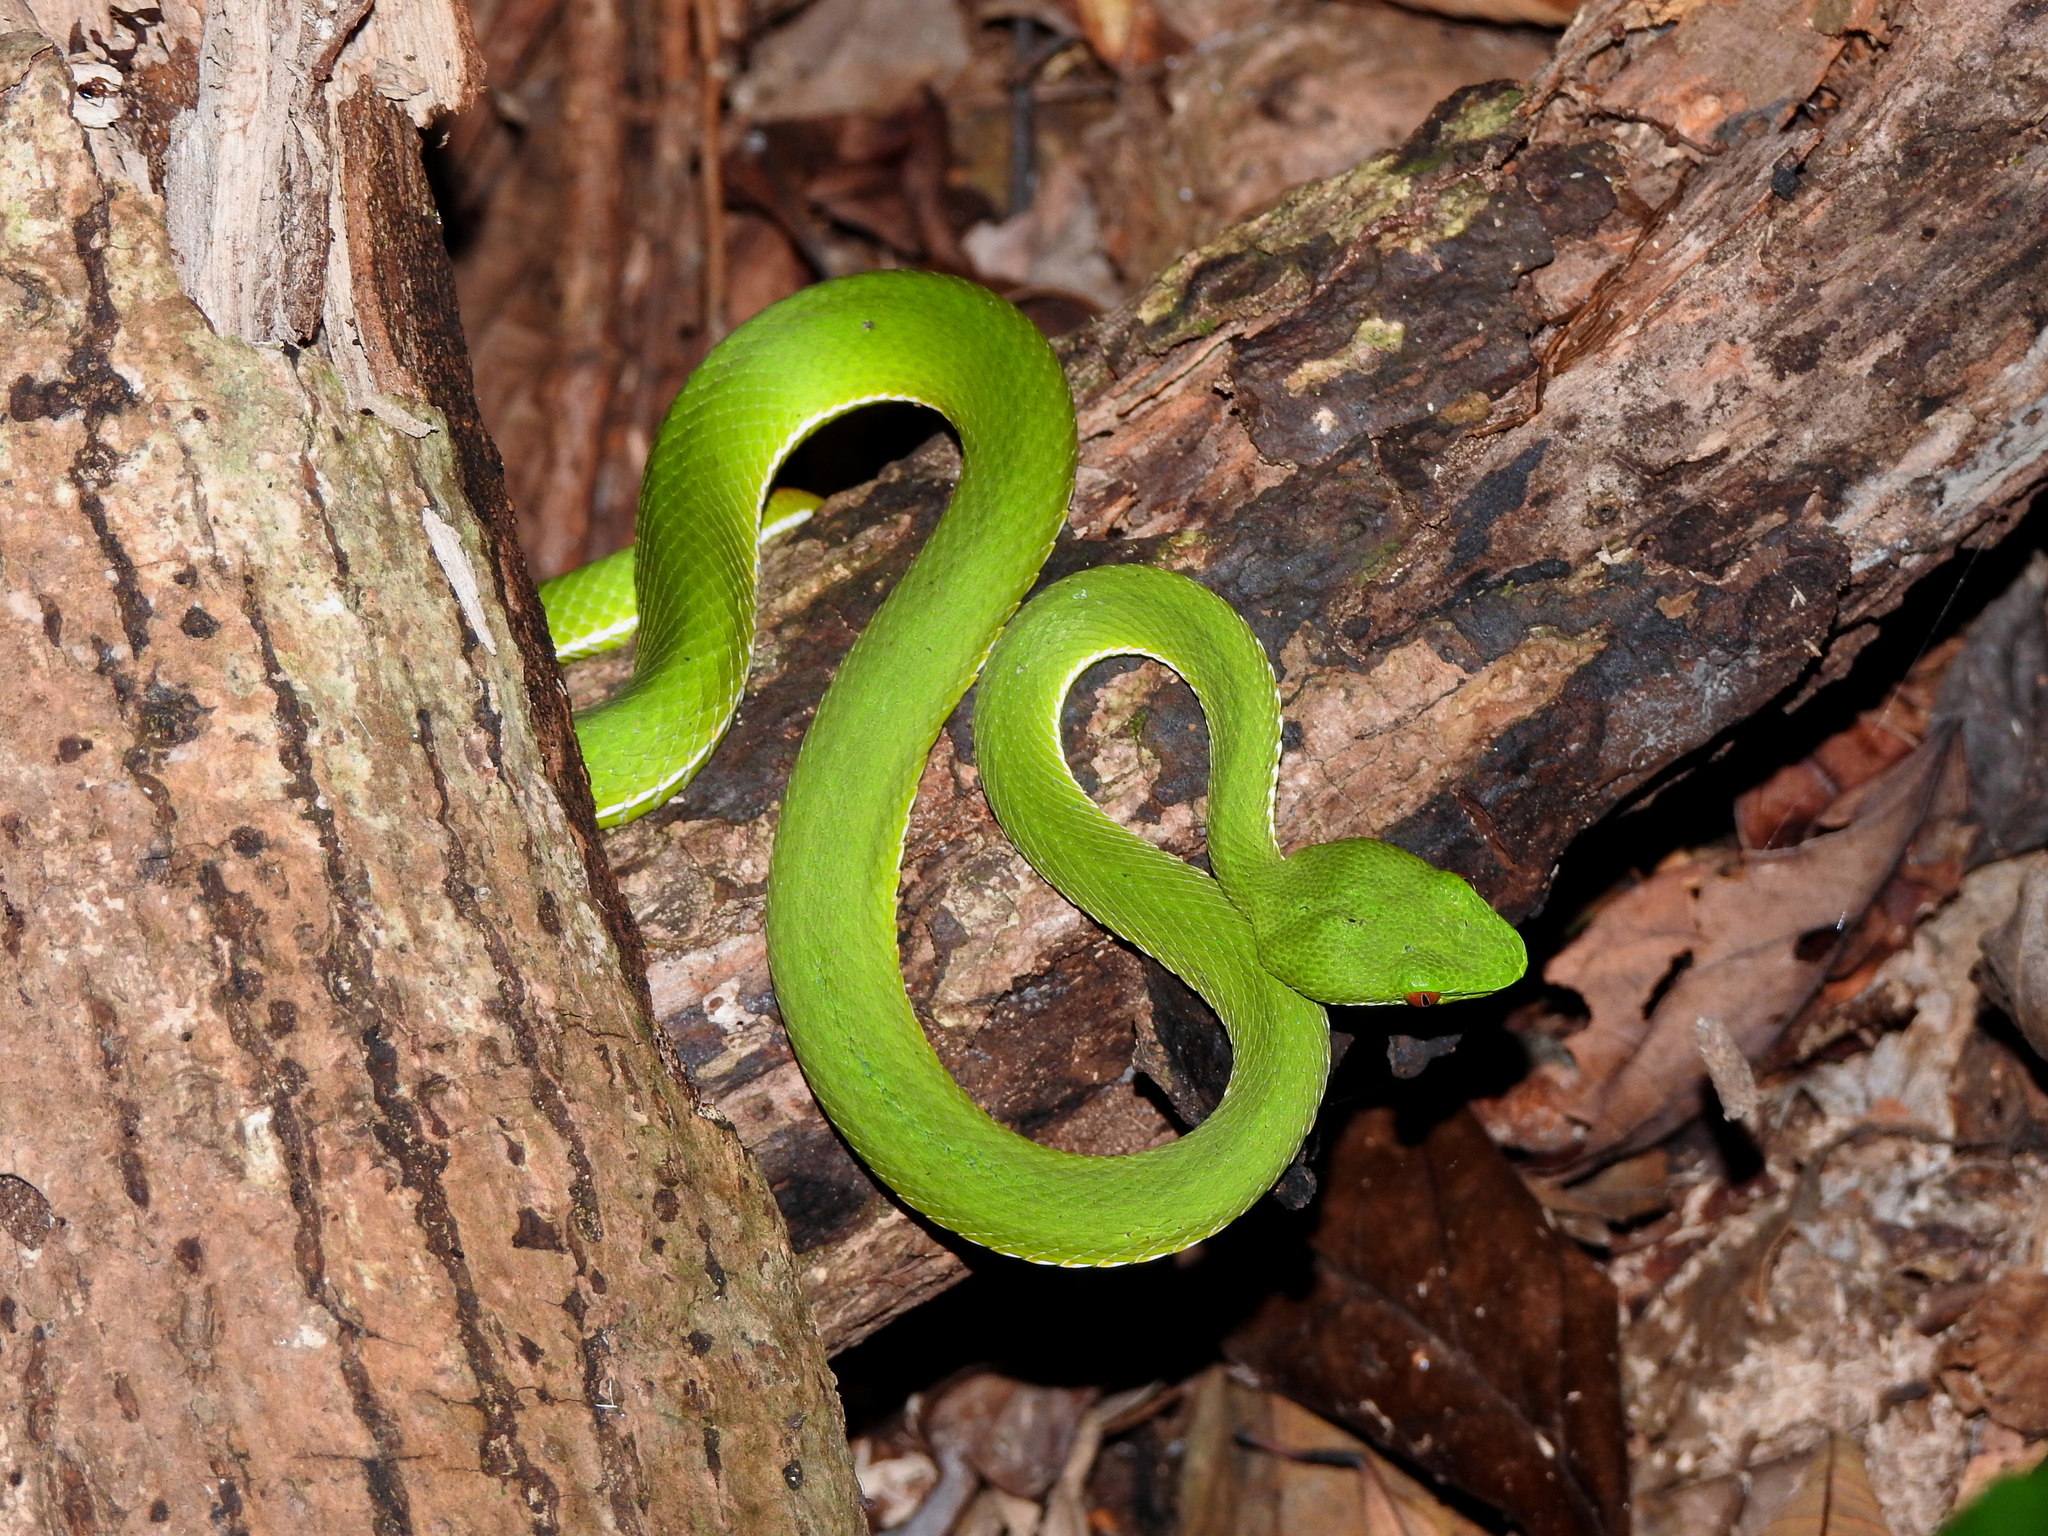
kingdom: Animalia
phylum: Chordata
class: Squamata
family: Viperidae
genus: Trimeresurus
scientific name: Trimeresurus stejnegeri
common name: Chen’s bamboo pit viper
